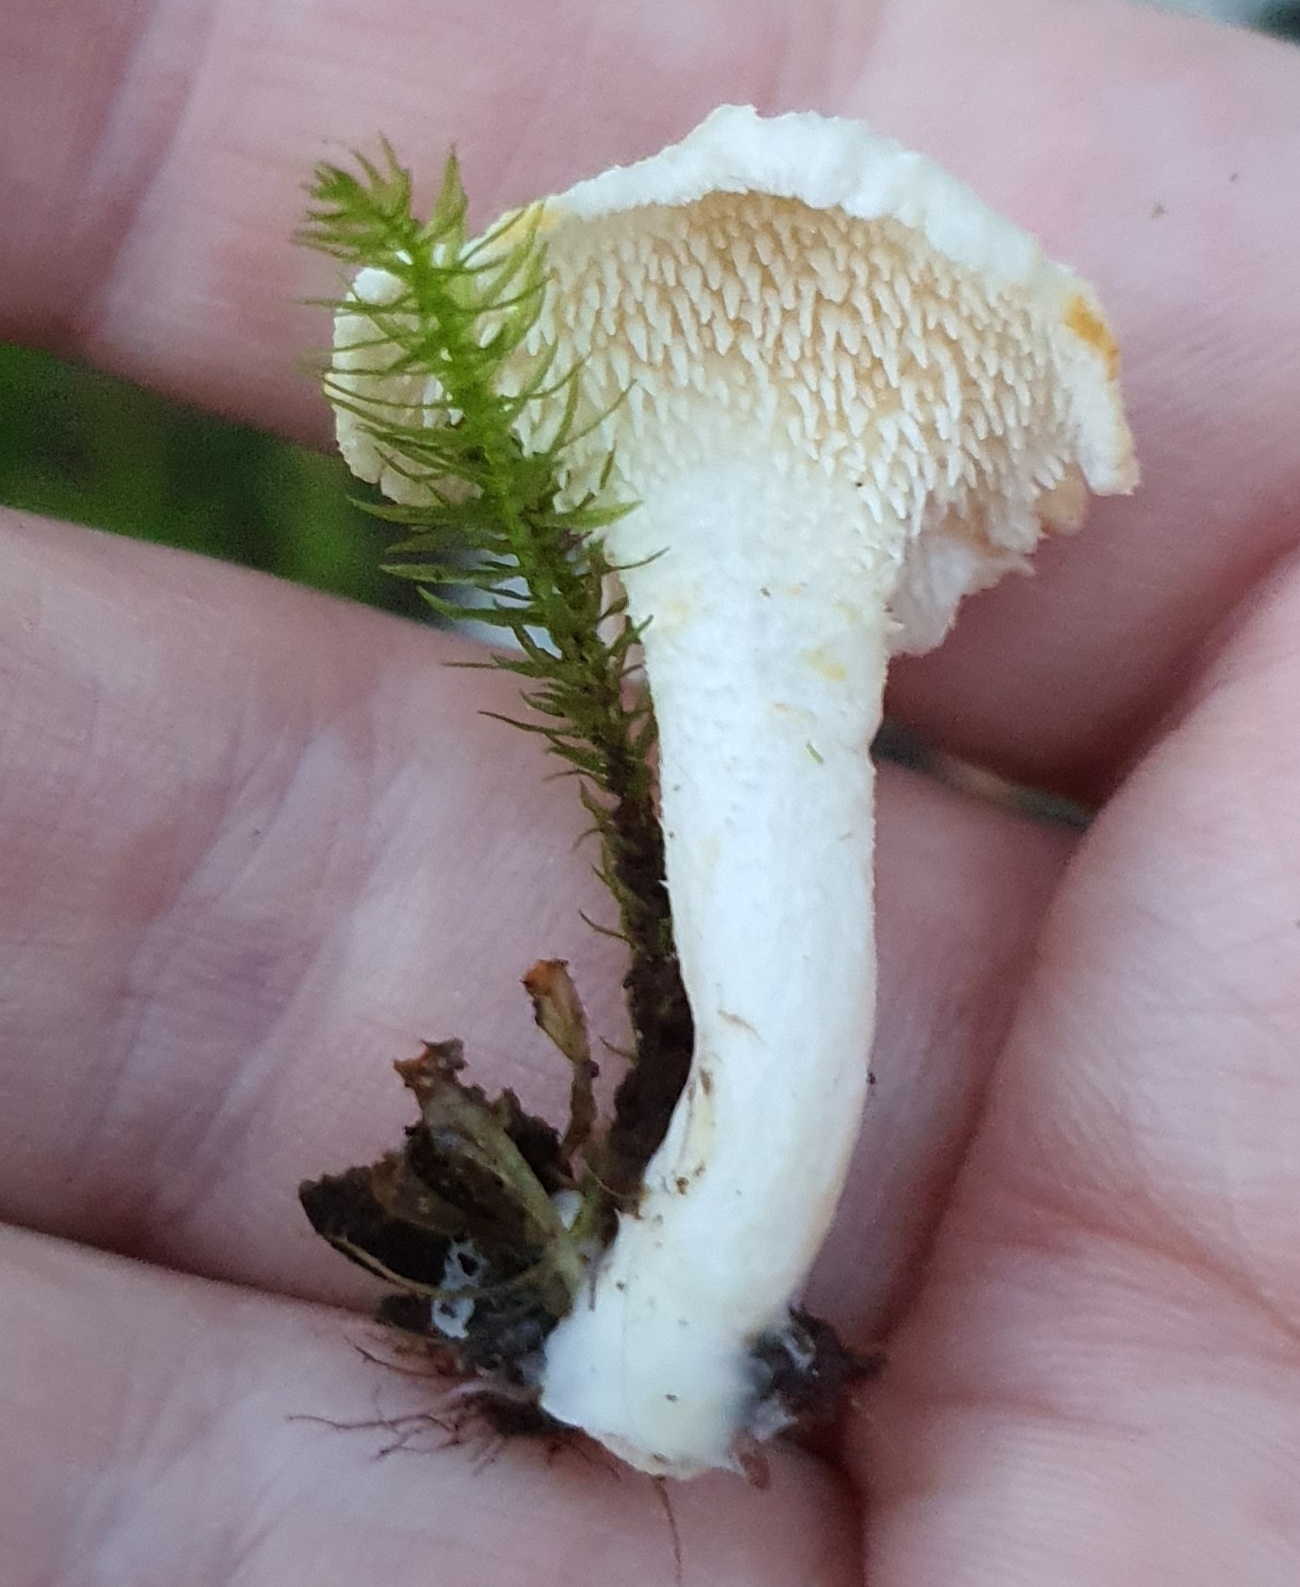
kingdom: Fungi
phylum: Basidiomycota
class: Agaricomycetes
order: Cantharellales
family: Hydnaceae
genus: Hydnum
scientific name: Hydnum ambustum
